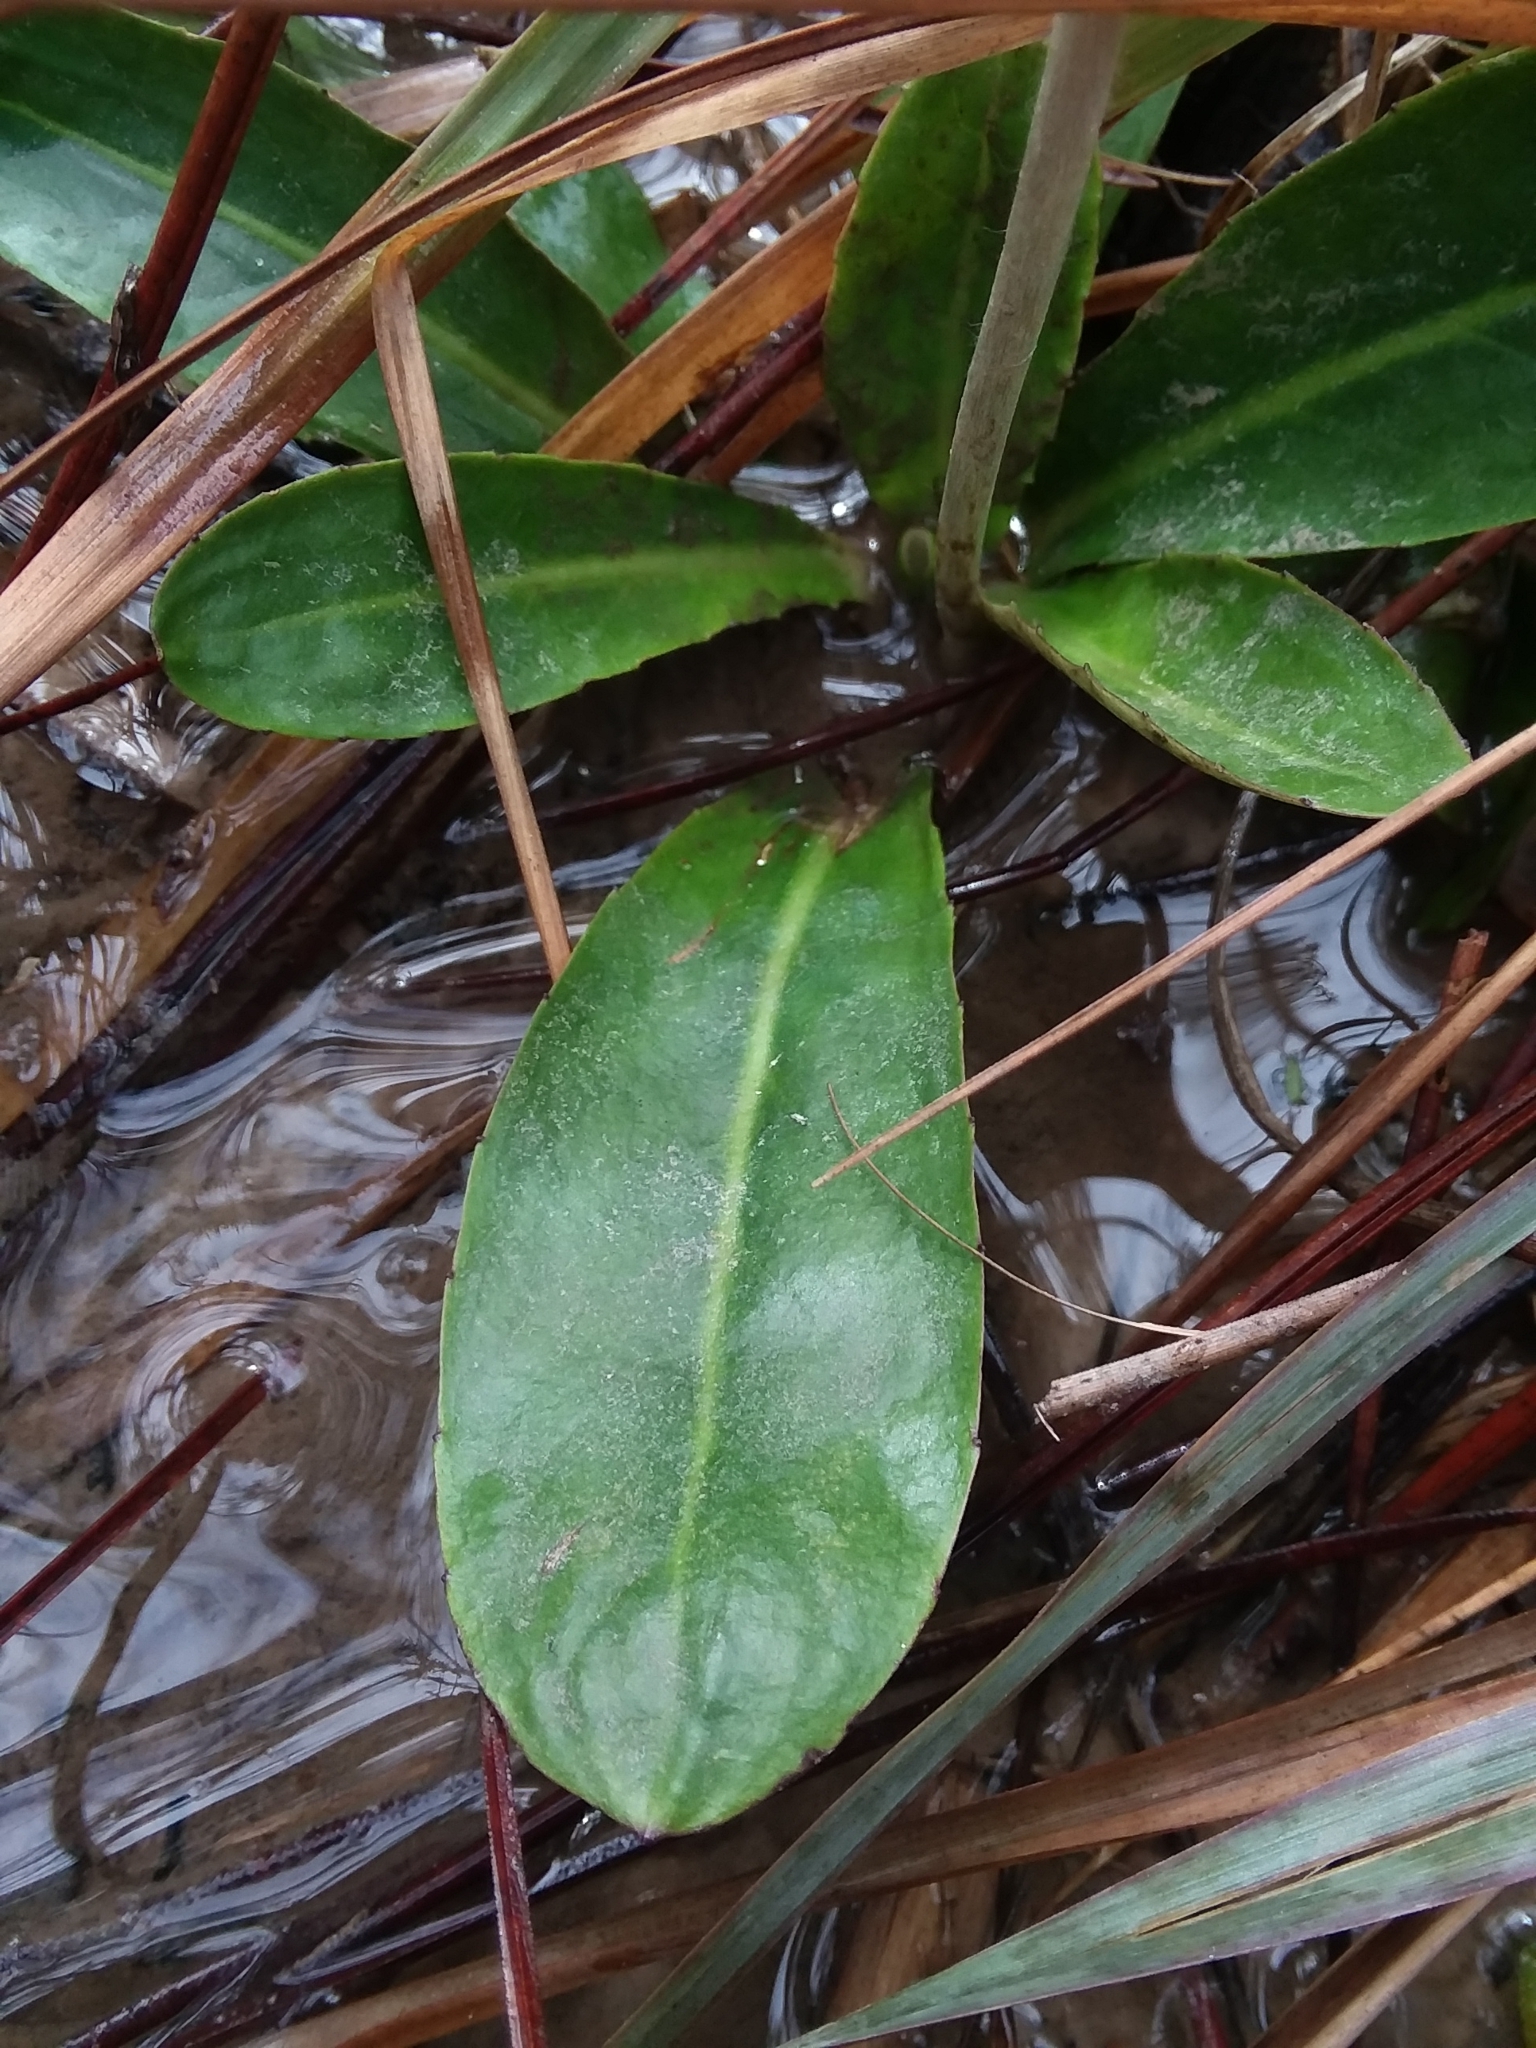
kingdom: Plantae
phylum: Tracheophyta
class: Magnoliopsida
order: Asterales
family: Asteraceae
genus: Chaptalia
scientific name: Chaptalia tomentosa
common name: Woolly sunbonnet
